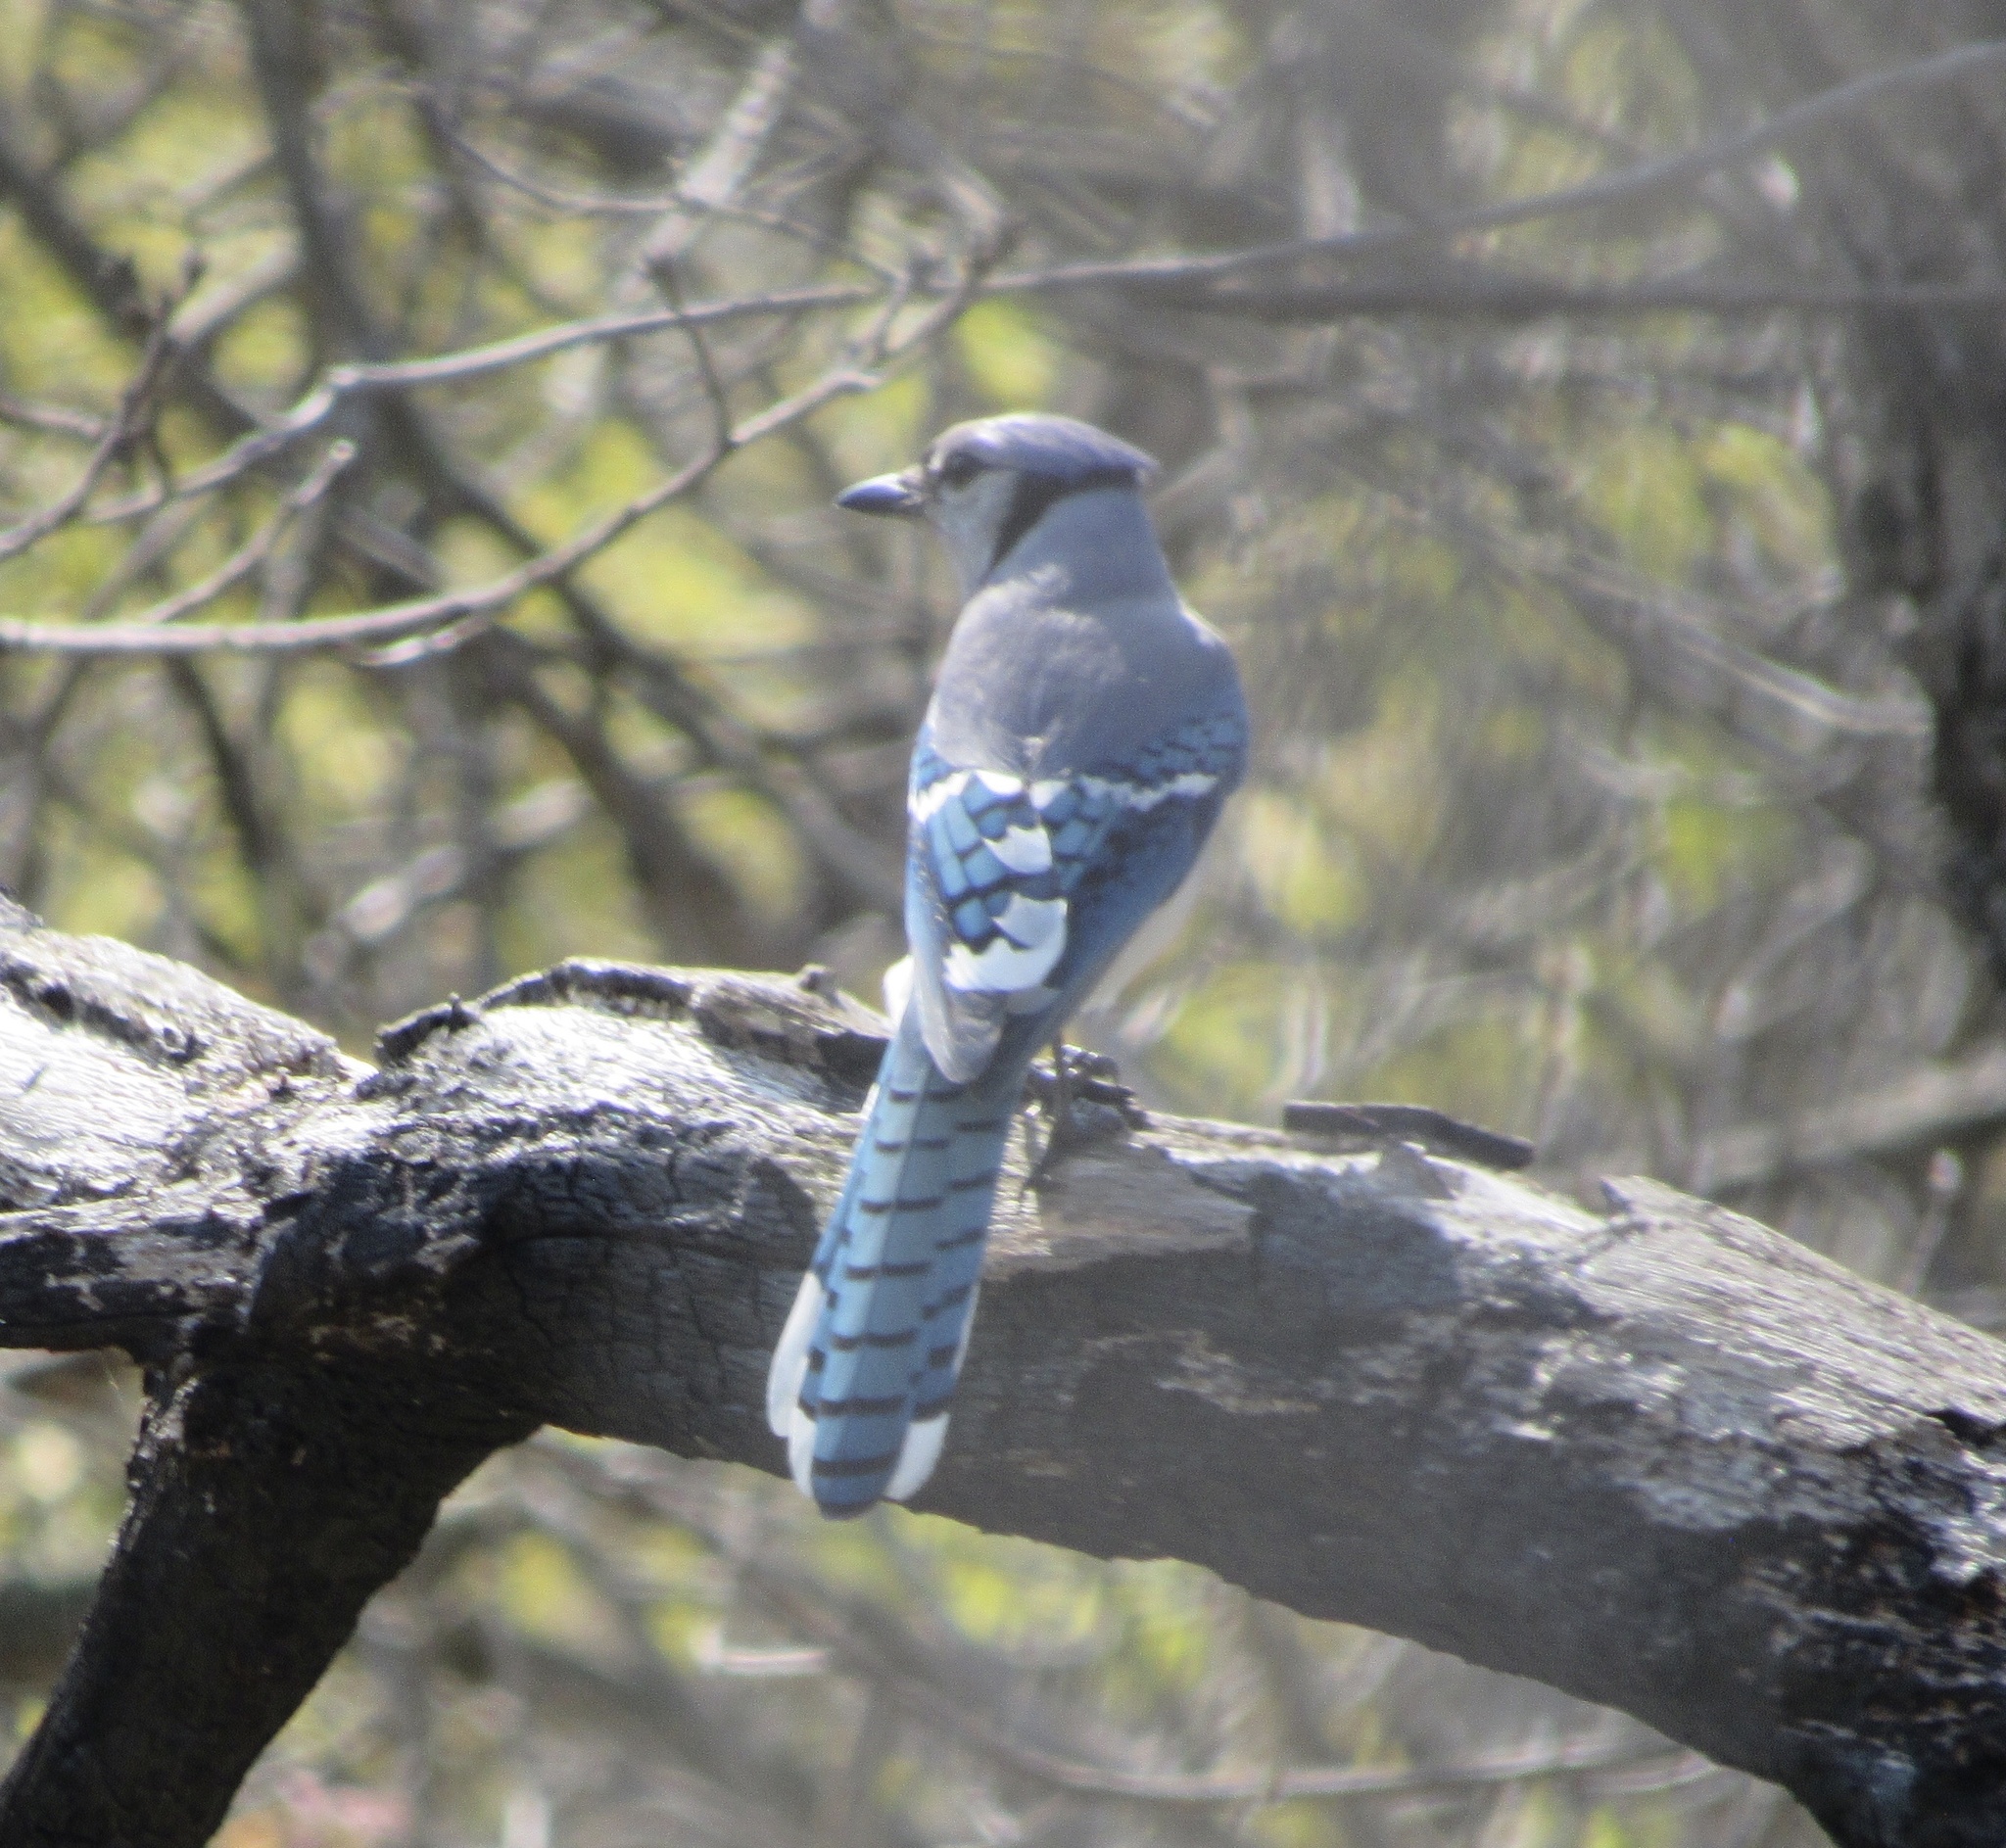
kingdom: Animalia
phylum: Chordata
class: Aves
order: Passeriformes
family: Corvidae
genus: Cyanocitta
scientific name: Cyanocitta cristata
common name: Blue jay
